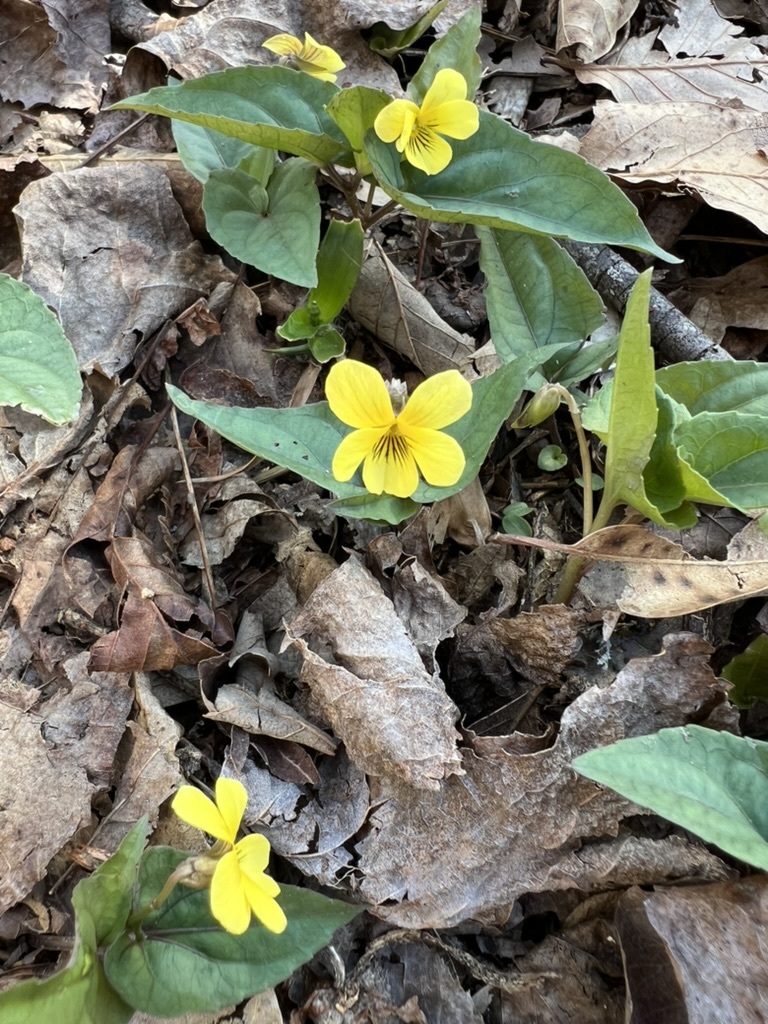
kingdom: Plantae
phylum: Tracheophyta
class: Magnoliopsida
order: Malpighiales
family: Violaceae
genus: Viola
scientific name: Viola hastata
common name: Spear-leaf violet
